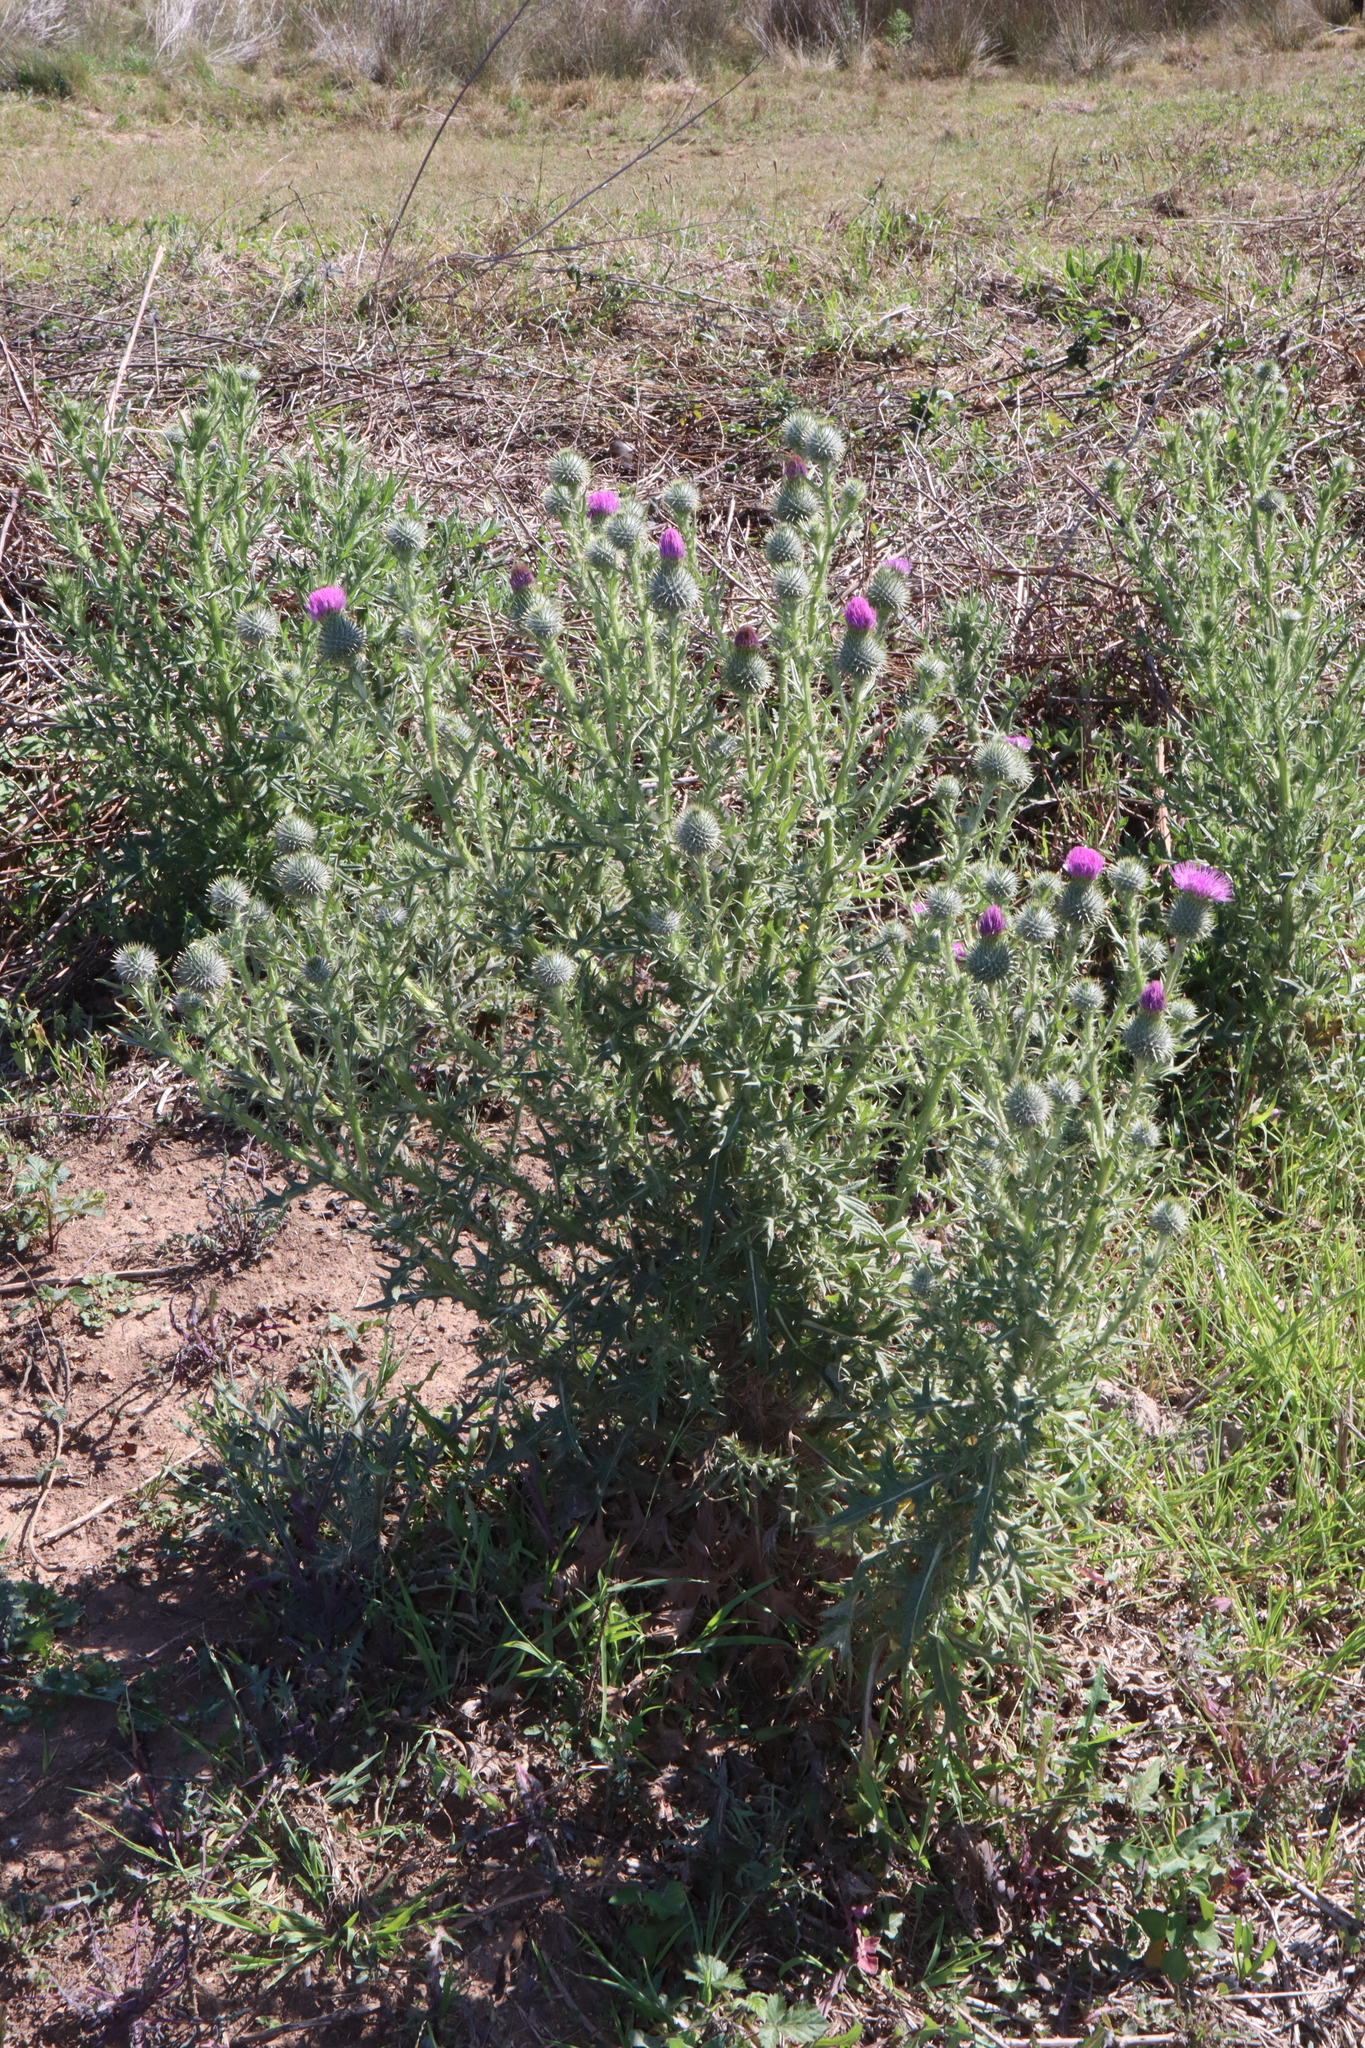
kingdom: Plantae
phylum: Tracheophyta
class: Magnoliopsida
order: Asterales
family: Asteraceae
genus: Cirsium
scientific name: Cirsium vulgare
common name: Bull thistle
